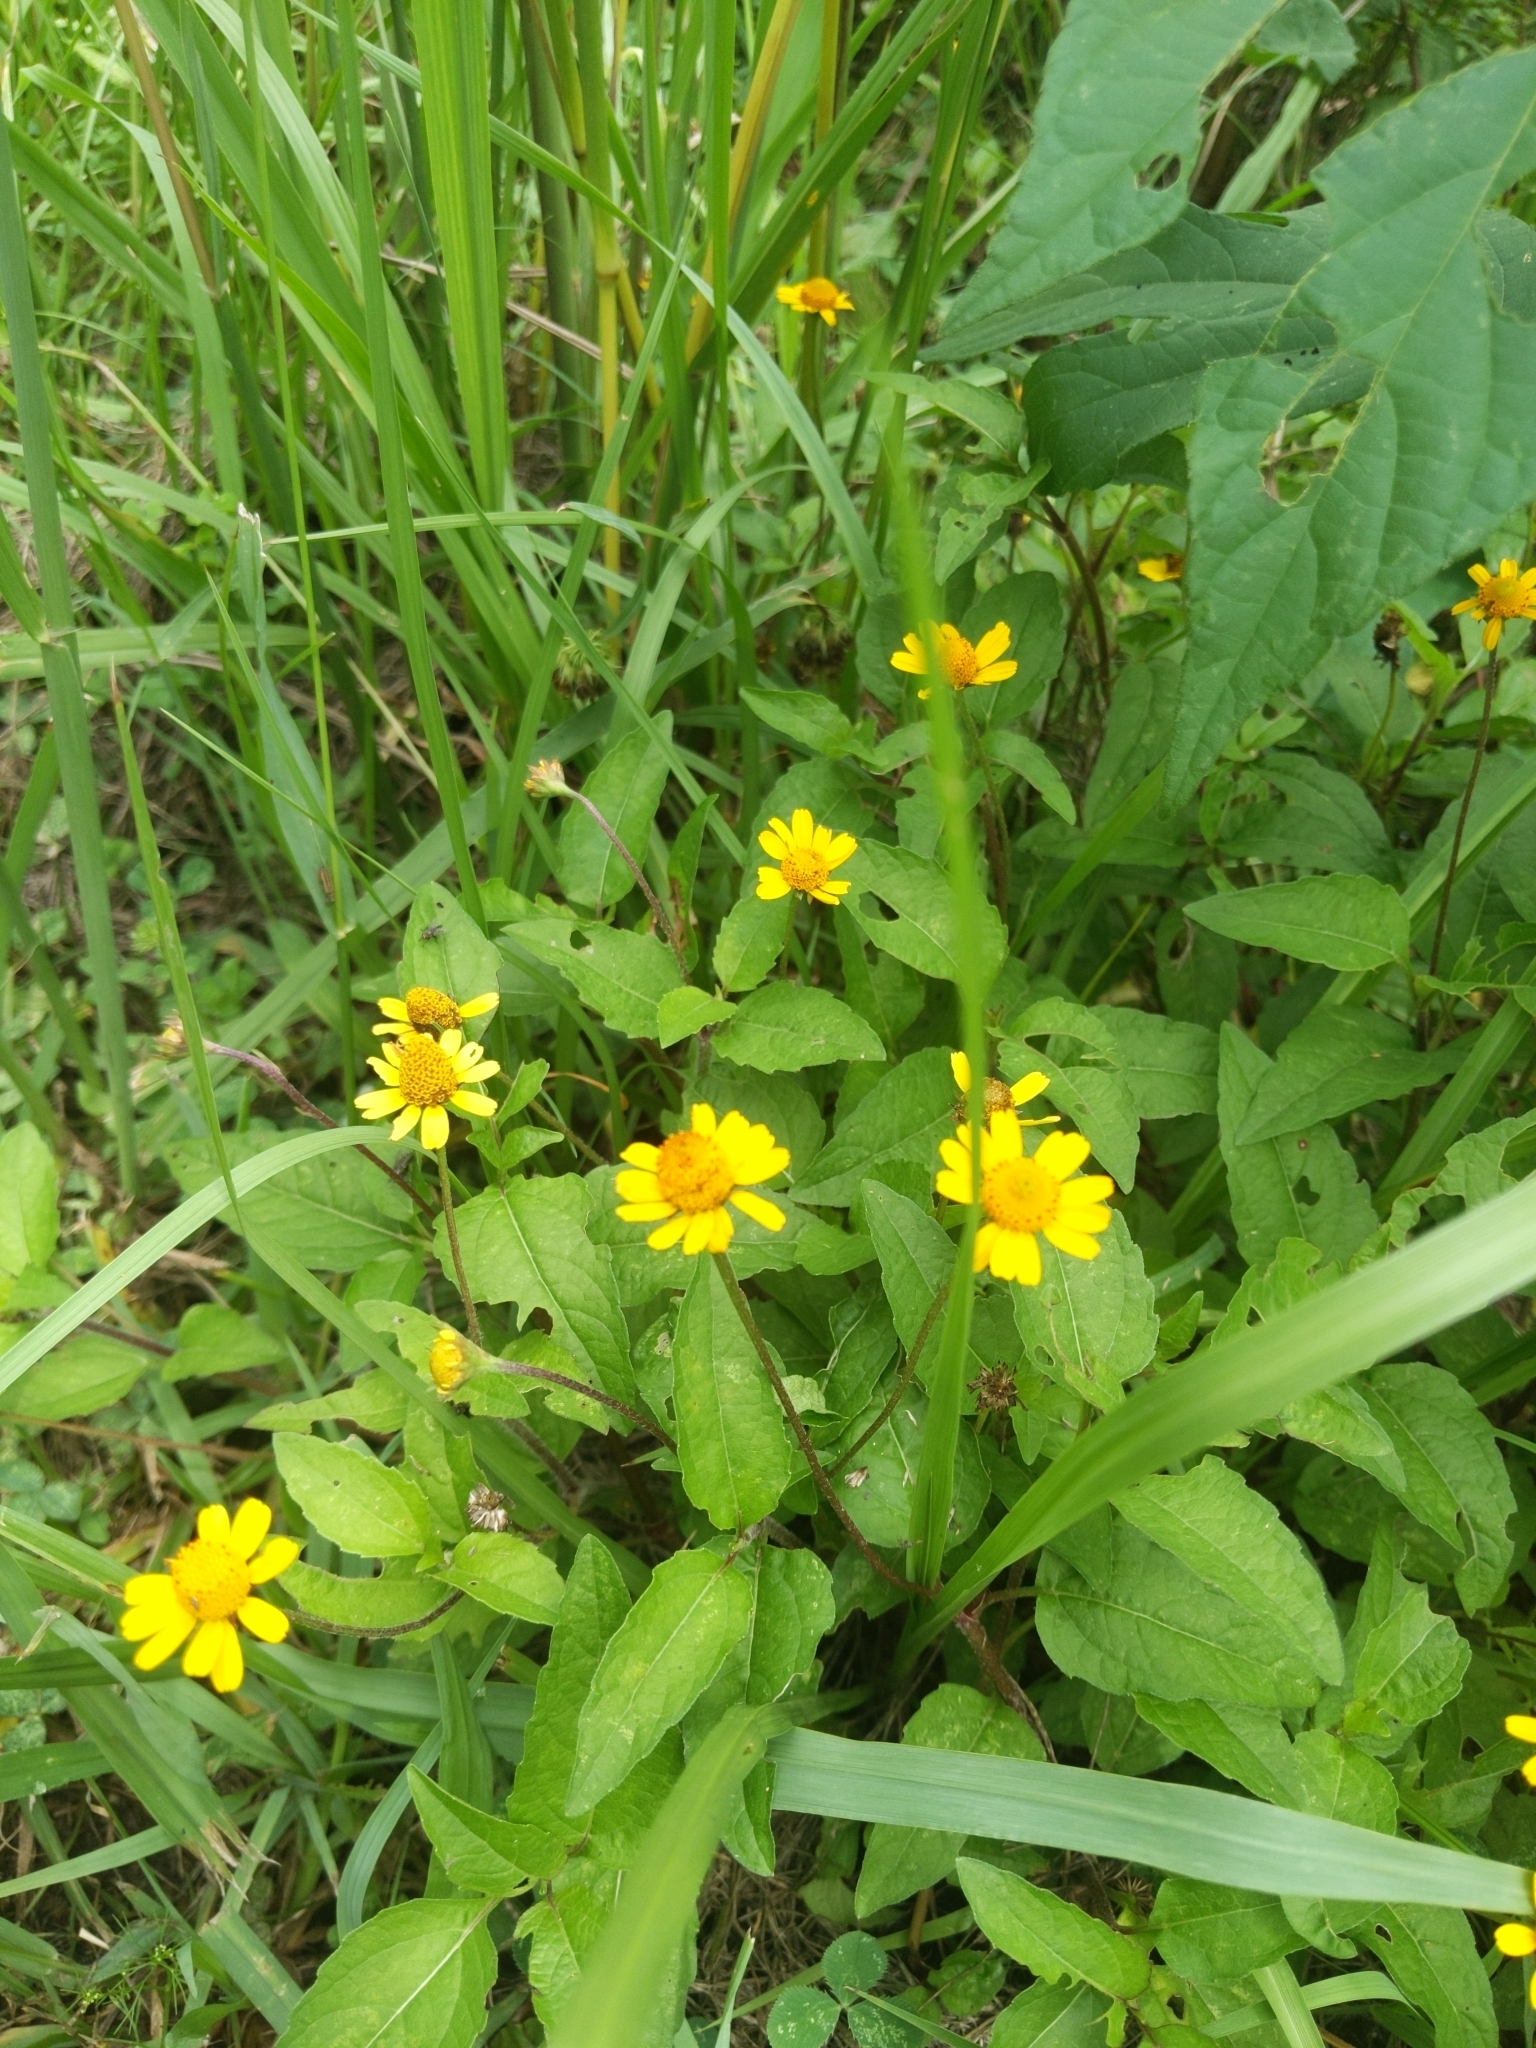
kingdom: Plantae
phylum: Tracheophyta
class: Magnoliopsida
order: Asterales
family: Asteraceae
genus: Acmella
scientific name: Acmella repens
